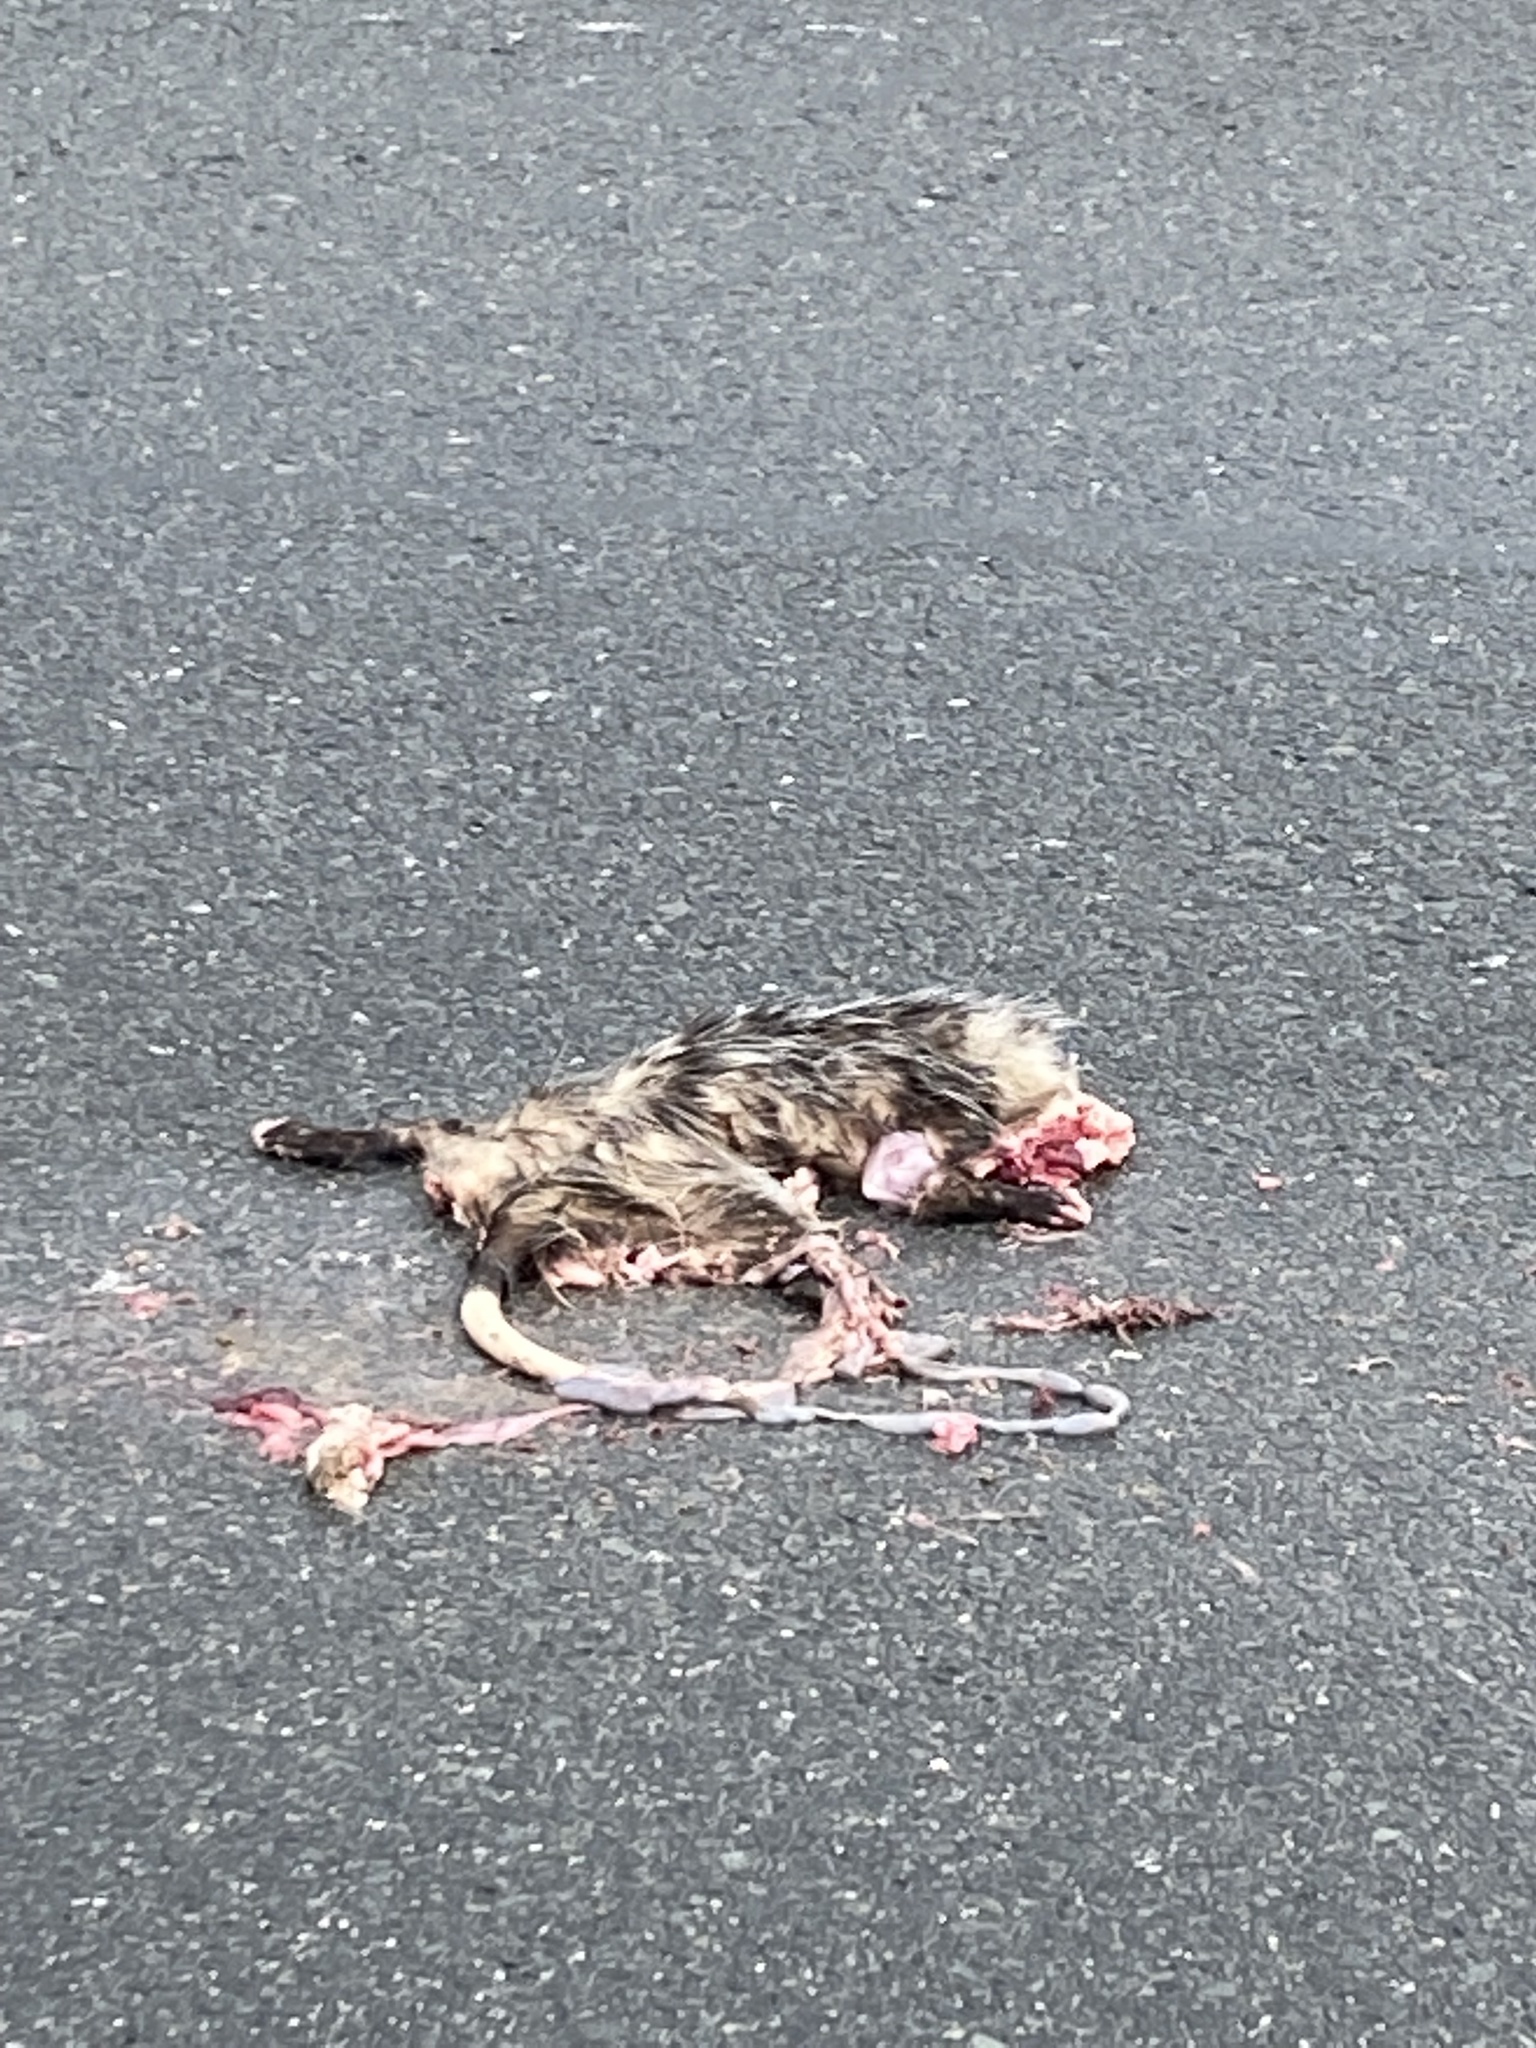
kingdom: Animalia
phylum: Chordata
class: Mammalia
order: Didelphimorphia
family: Didelphidae
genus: Didelphis
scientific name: Didelphis virginiana
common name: Virginia opossum
